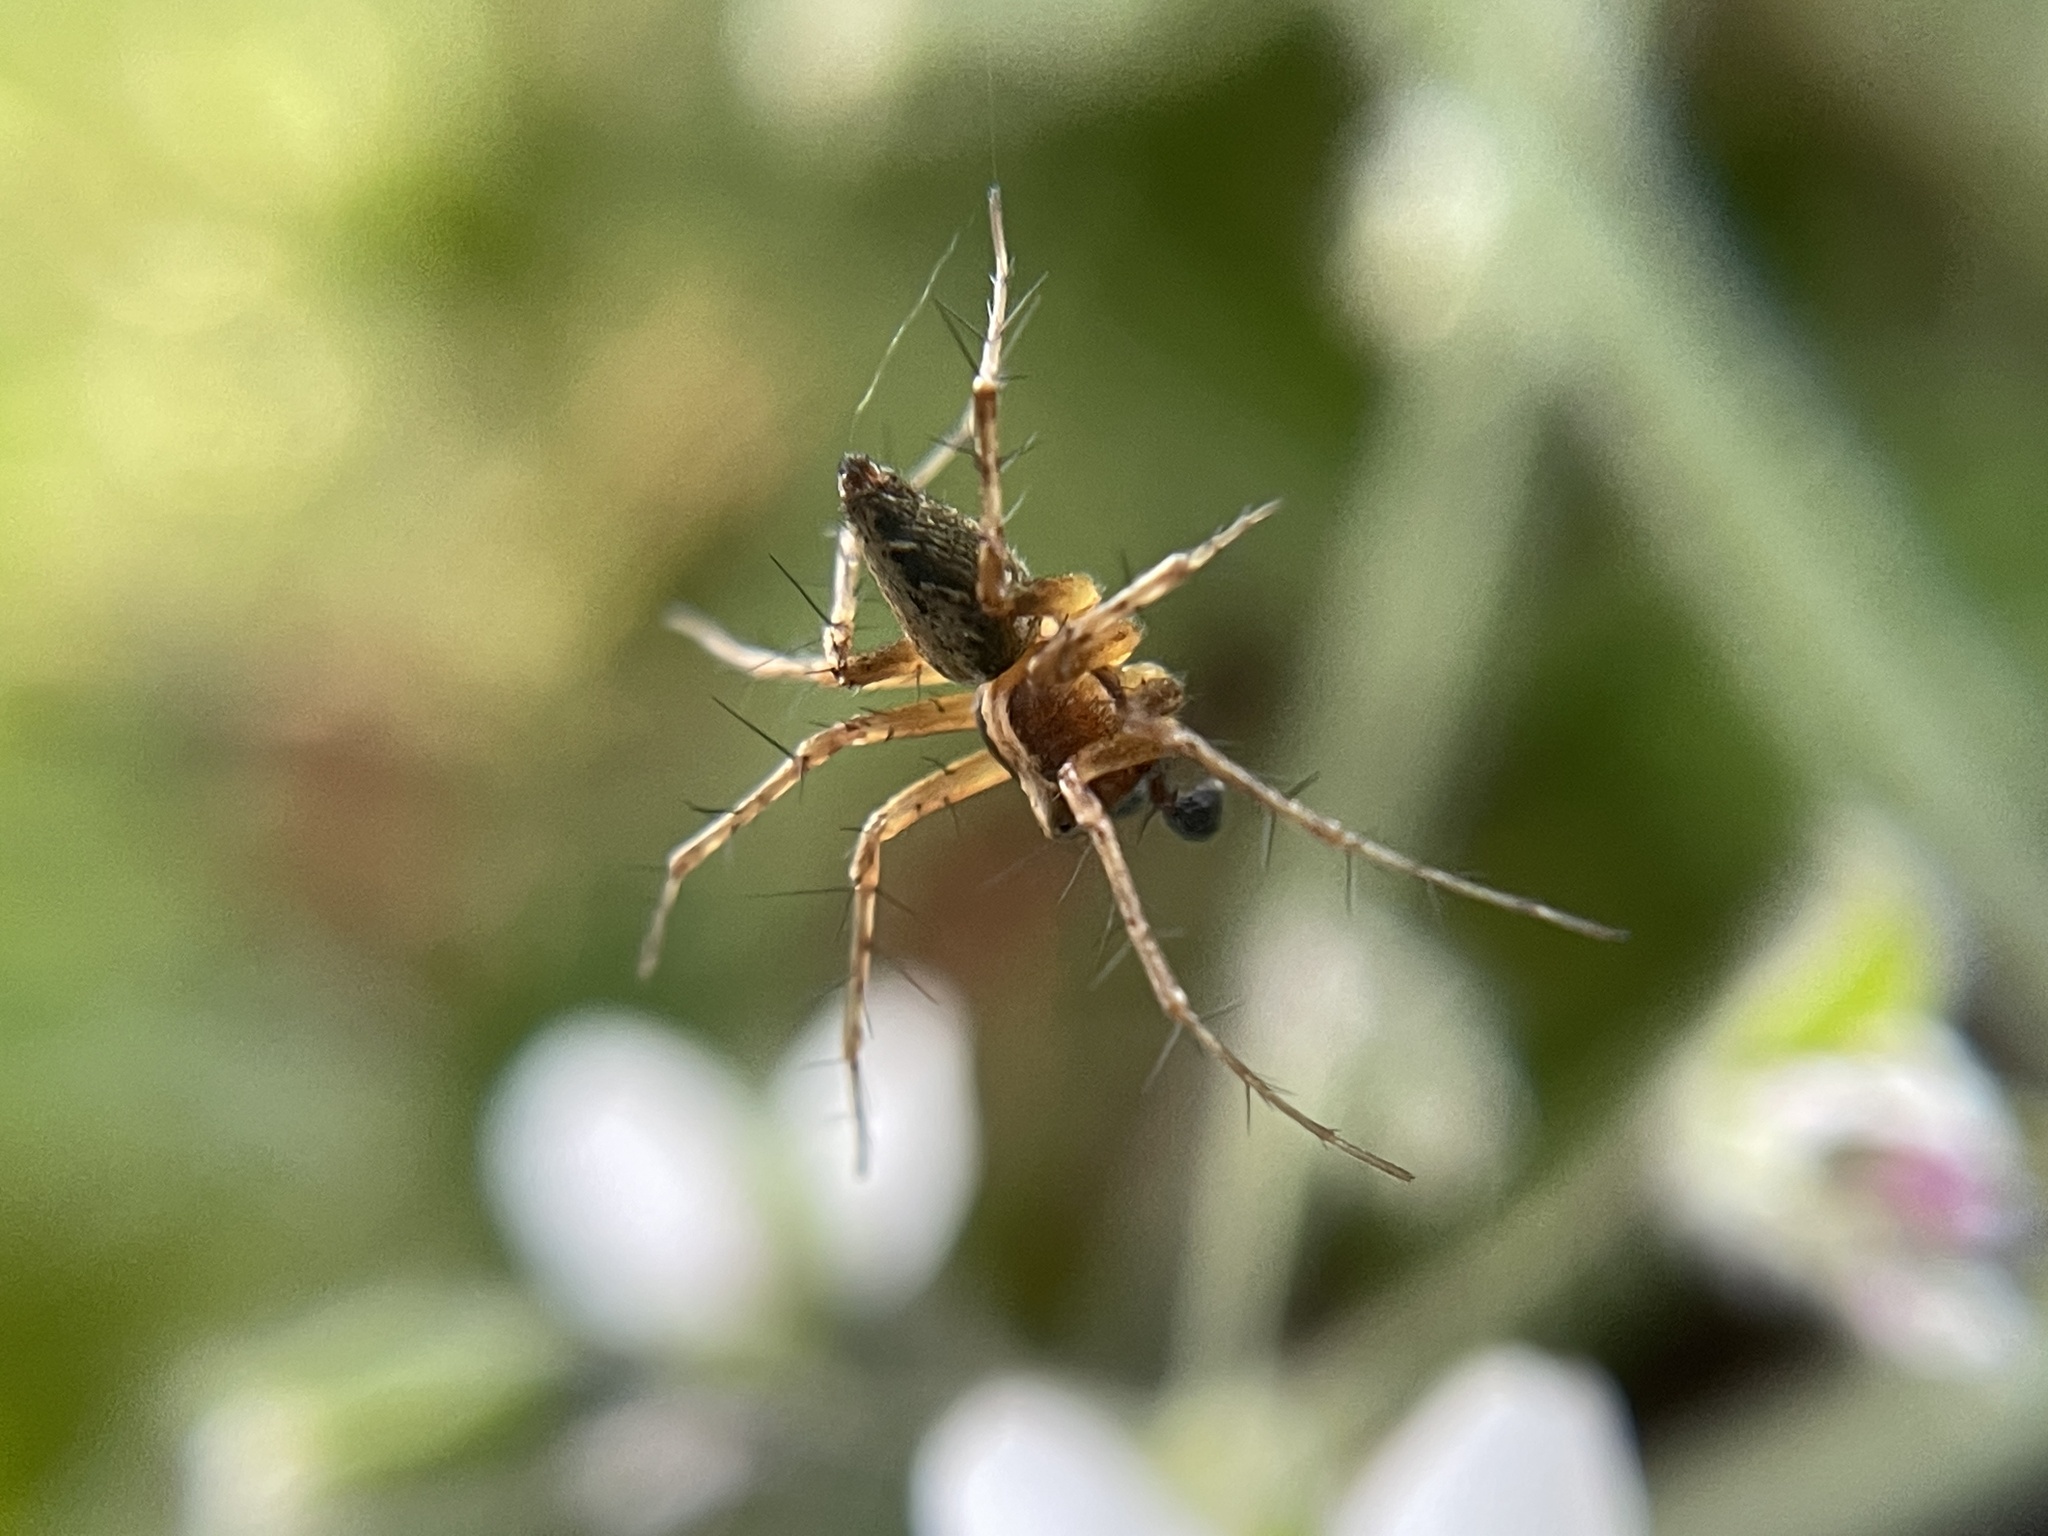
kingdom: Animalia
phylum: Arthropoda
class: Arachnida
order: Araneae
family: Oxyopidae
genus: Oxyopes
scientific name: Oxyopes scalaris
